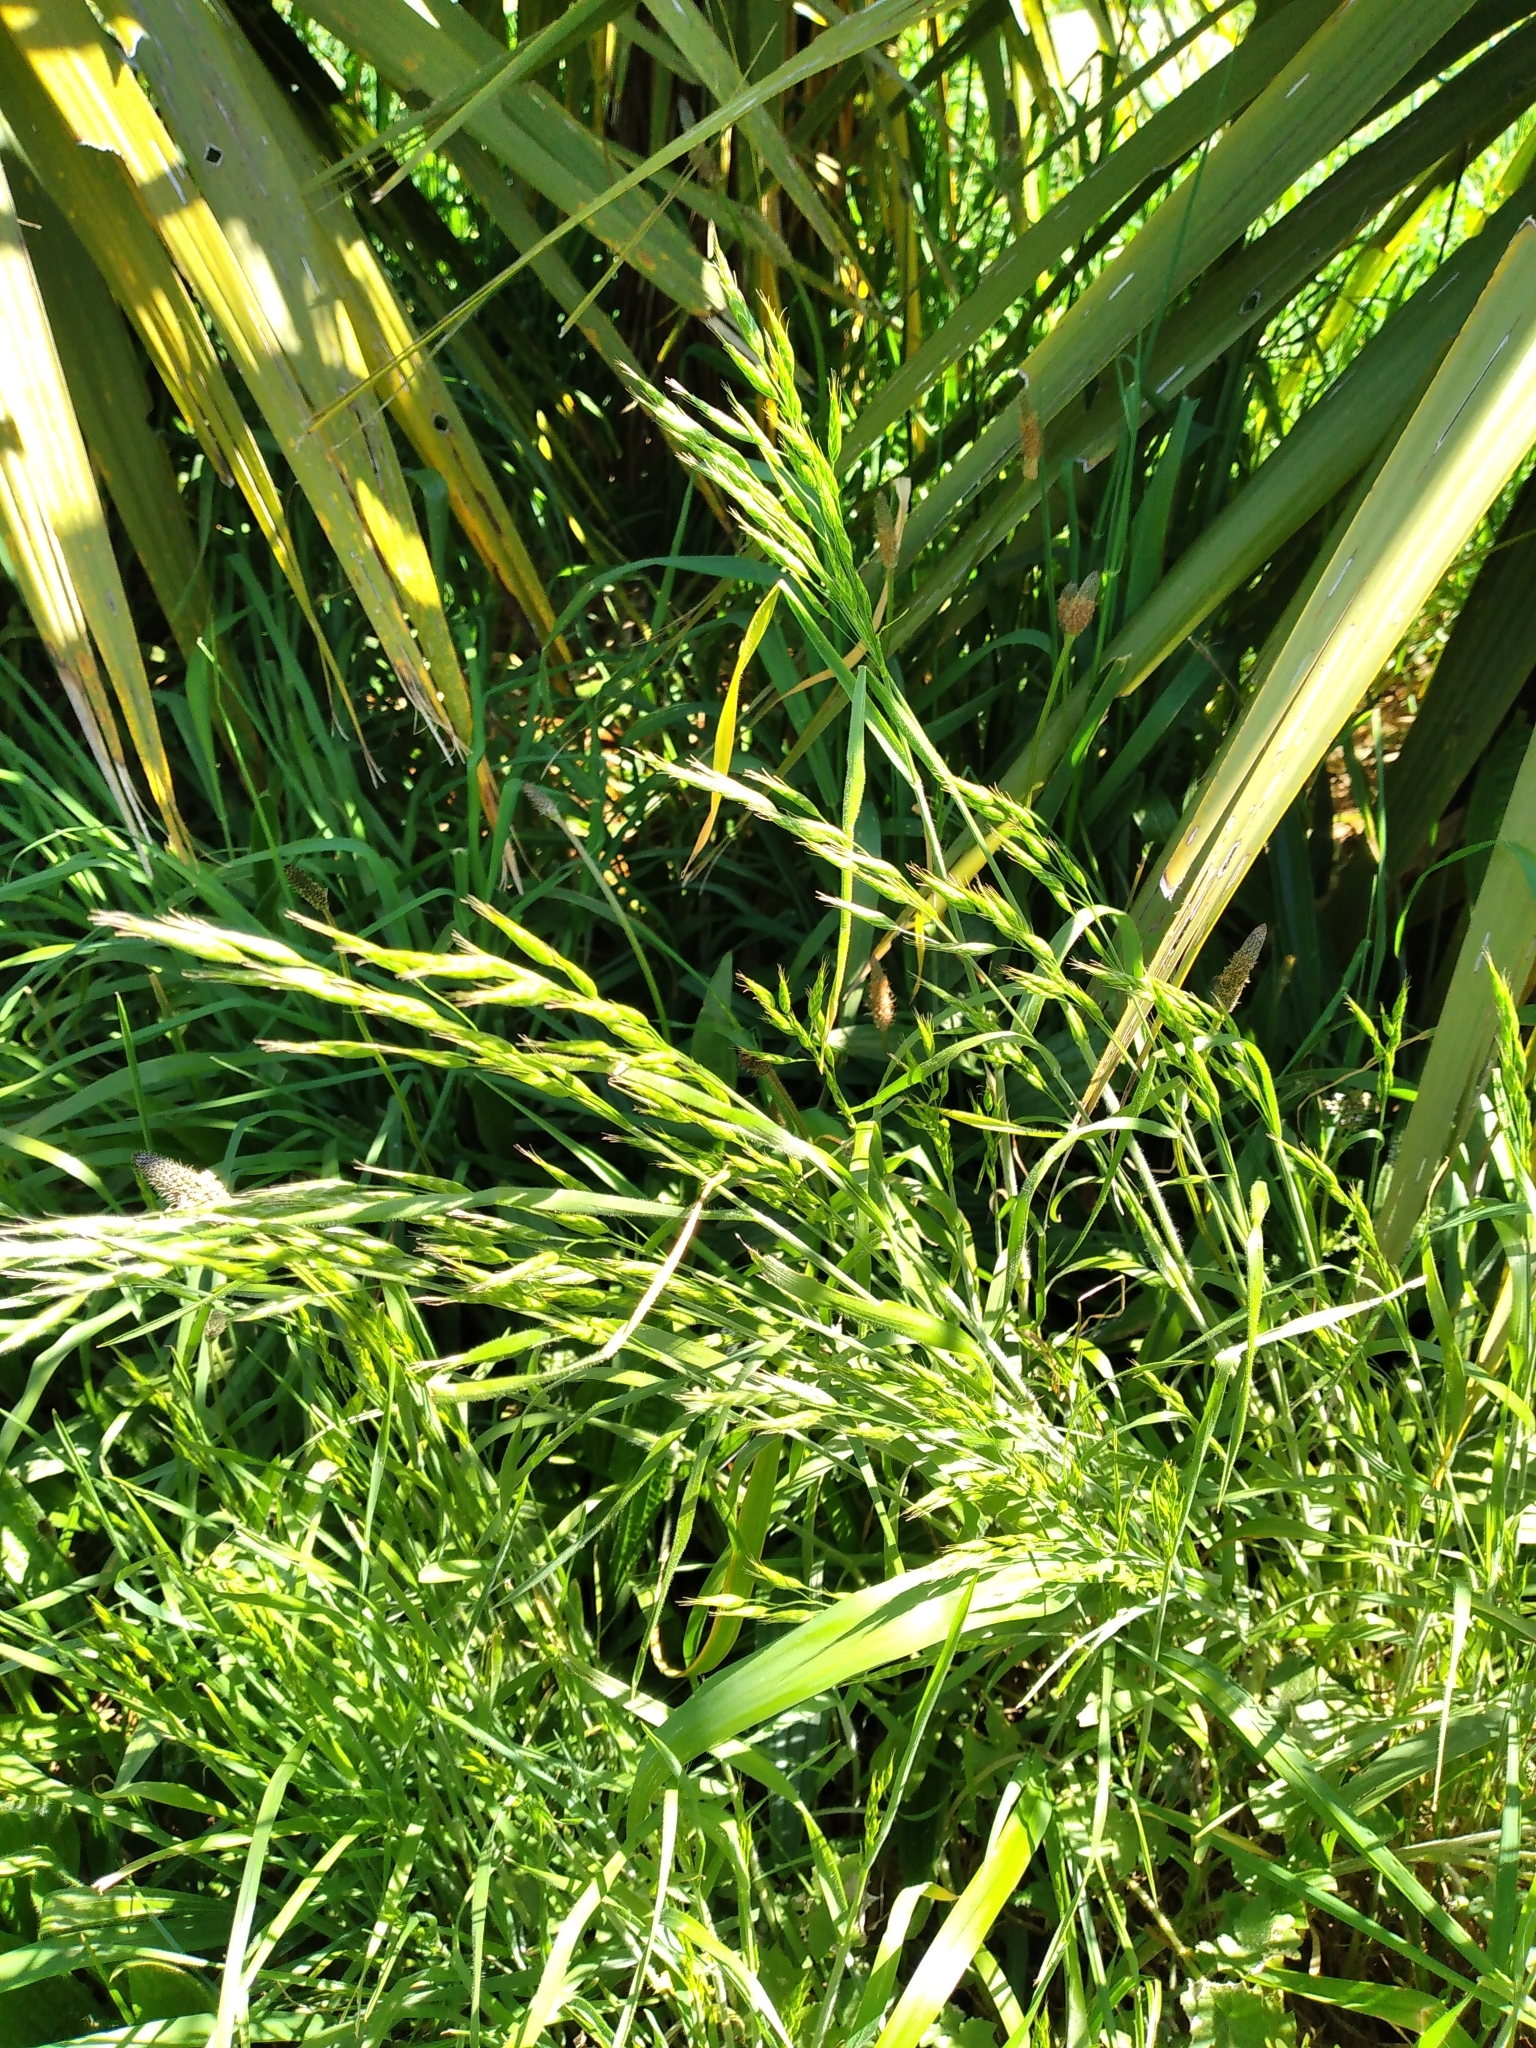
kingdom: Plantae
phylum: Tracheophyta
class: Liliopsida
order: Poales
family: Poaceae
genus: Bromus
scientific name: Bromus hordeaceus
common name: Soft brome
